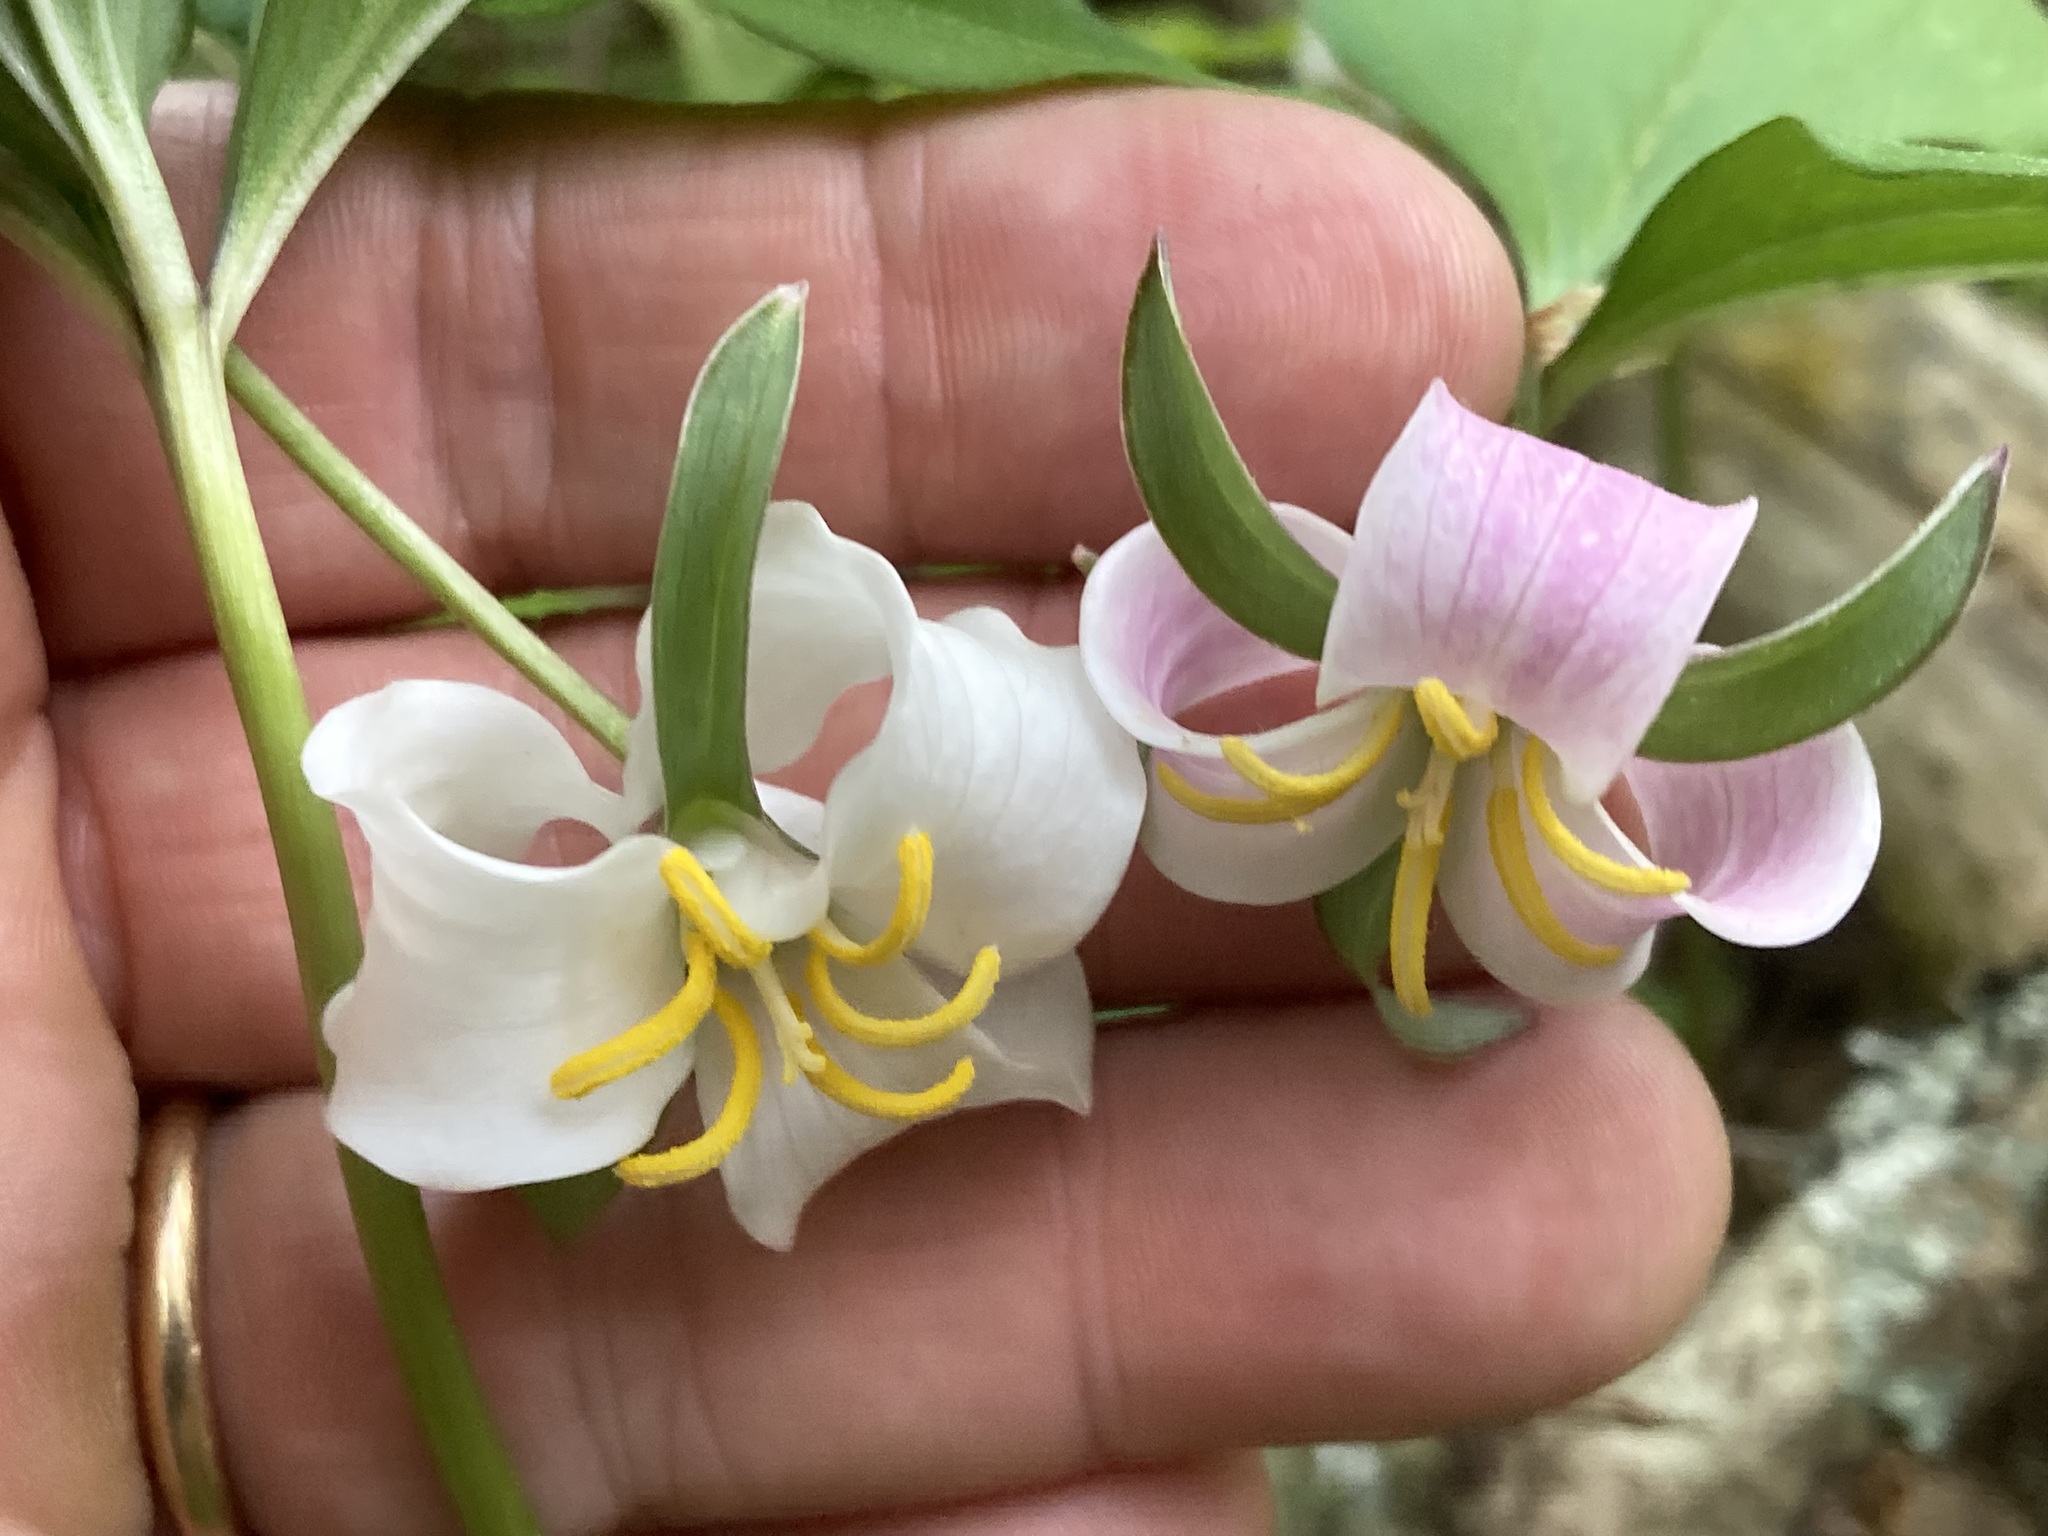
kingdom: Plantae
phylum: Tracheophyta
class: Liliopsida
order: Liliales
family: Melanthiaceae
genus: Trillium
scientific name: Trillium catesbaei
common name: Bashful trillium
